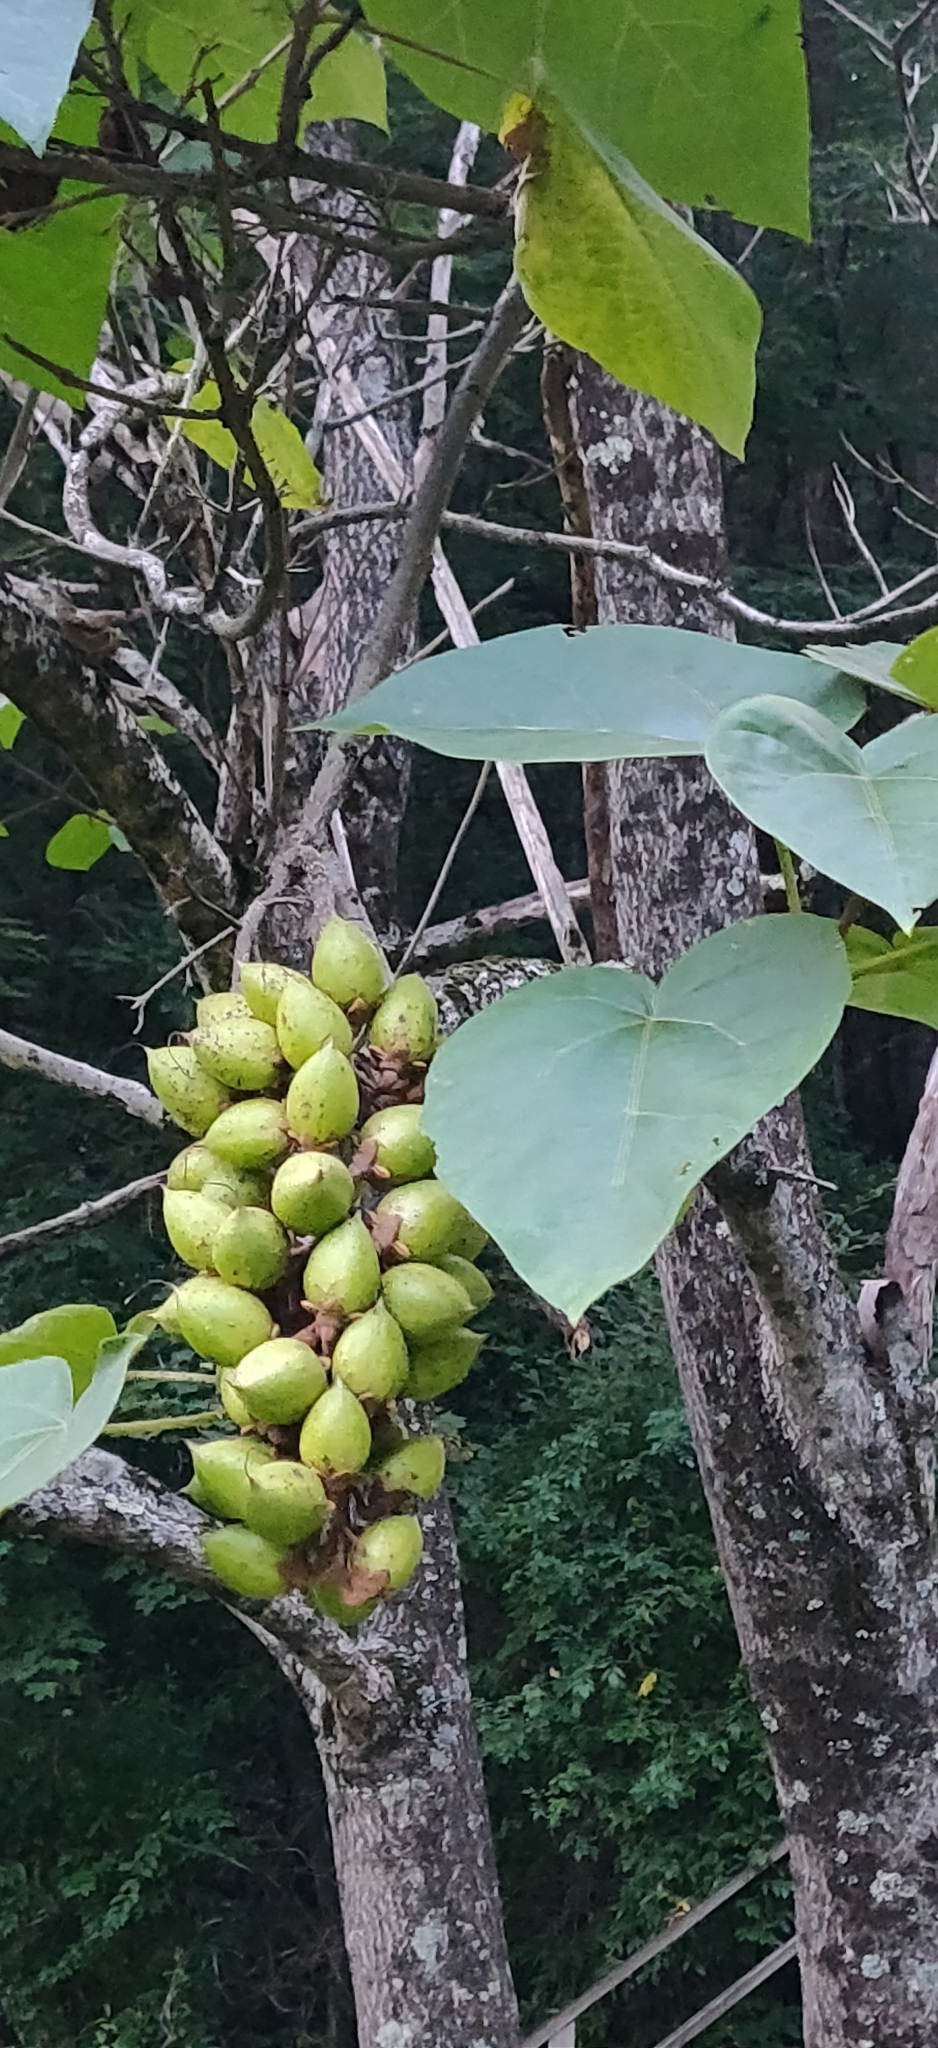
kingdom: Plantae
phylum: Tracheophyta
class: Magnoliopsida
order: Lamiales
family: Paulowniaceae
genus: Paulownia
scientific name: Paulownia tomentosa
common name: Foxglove-tree
